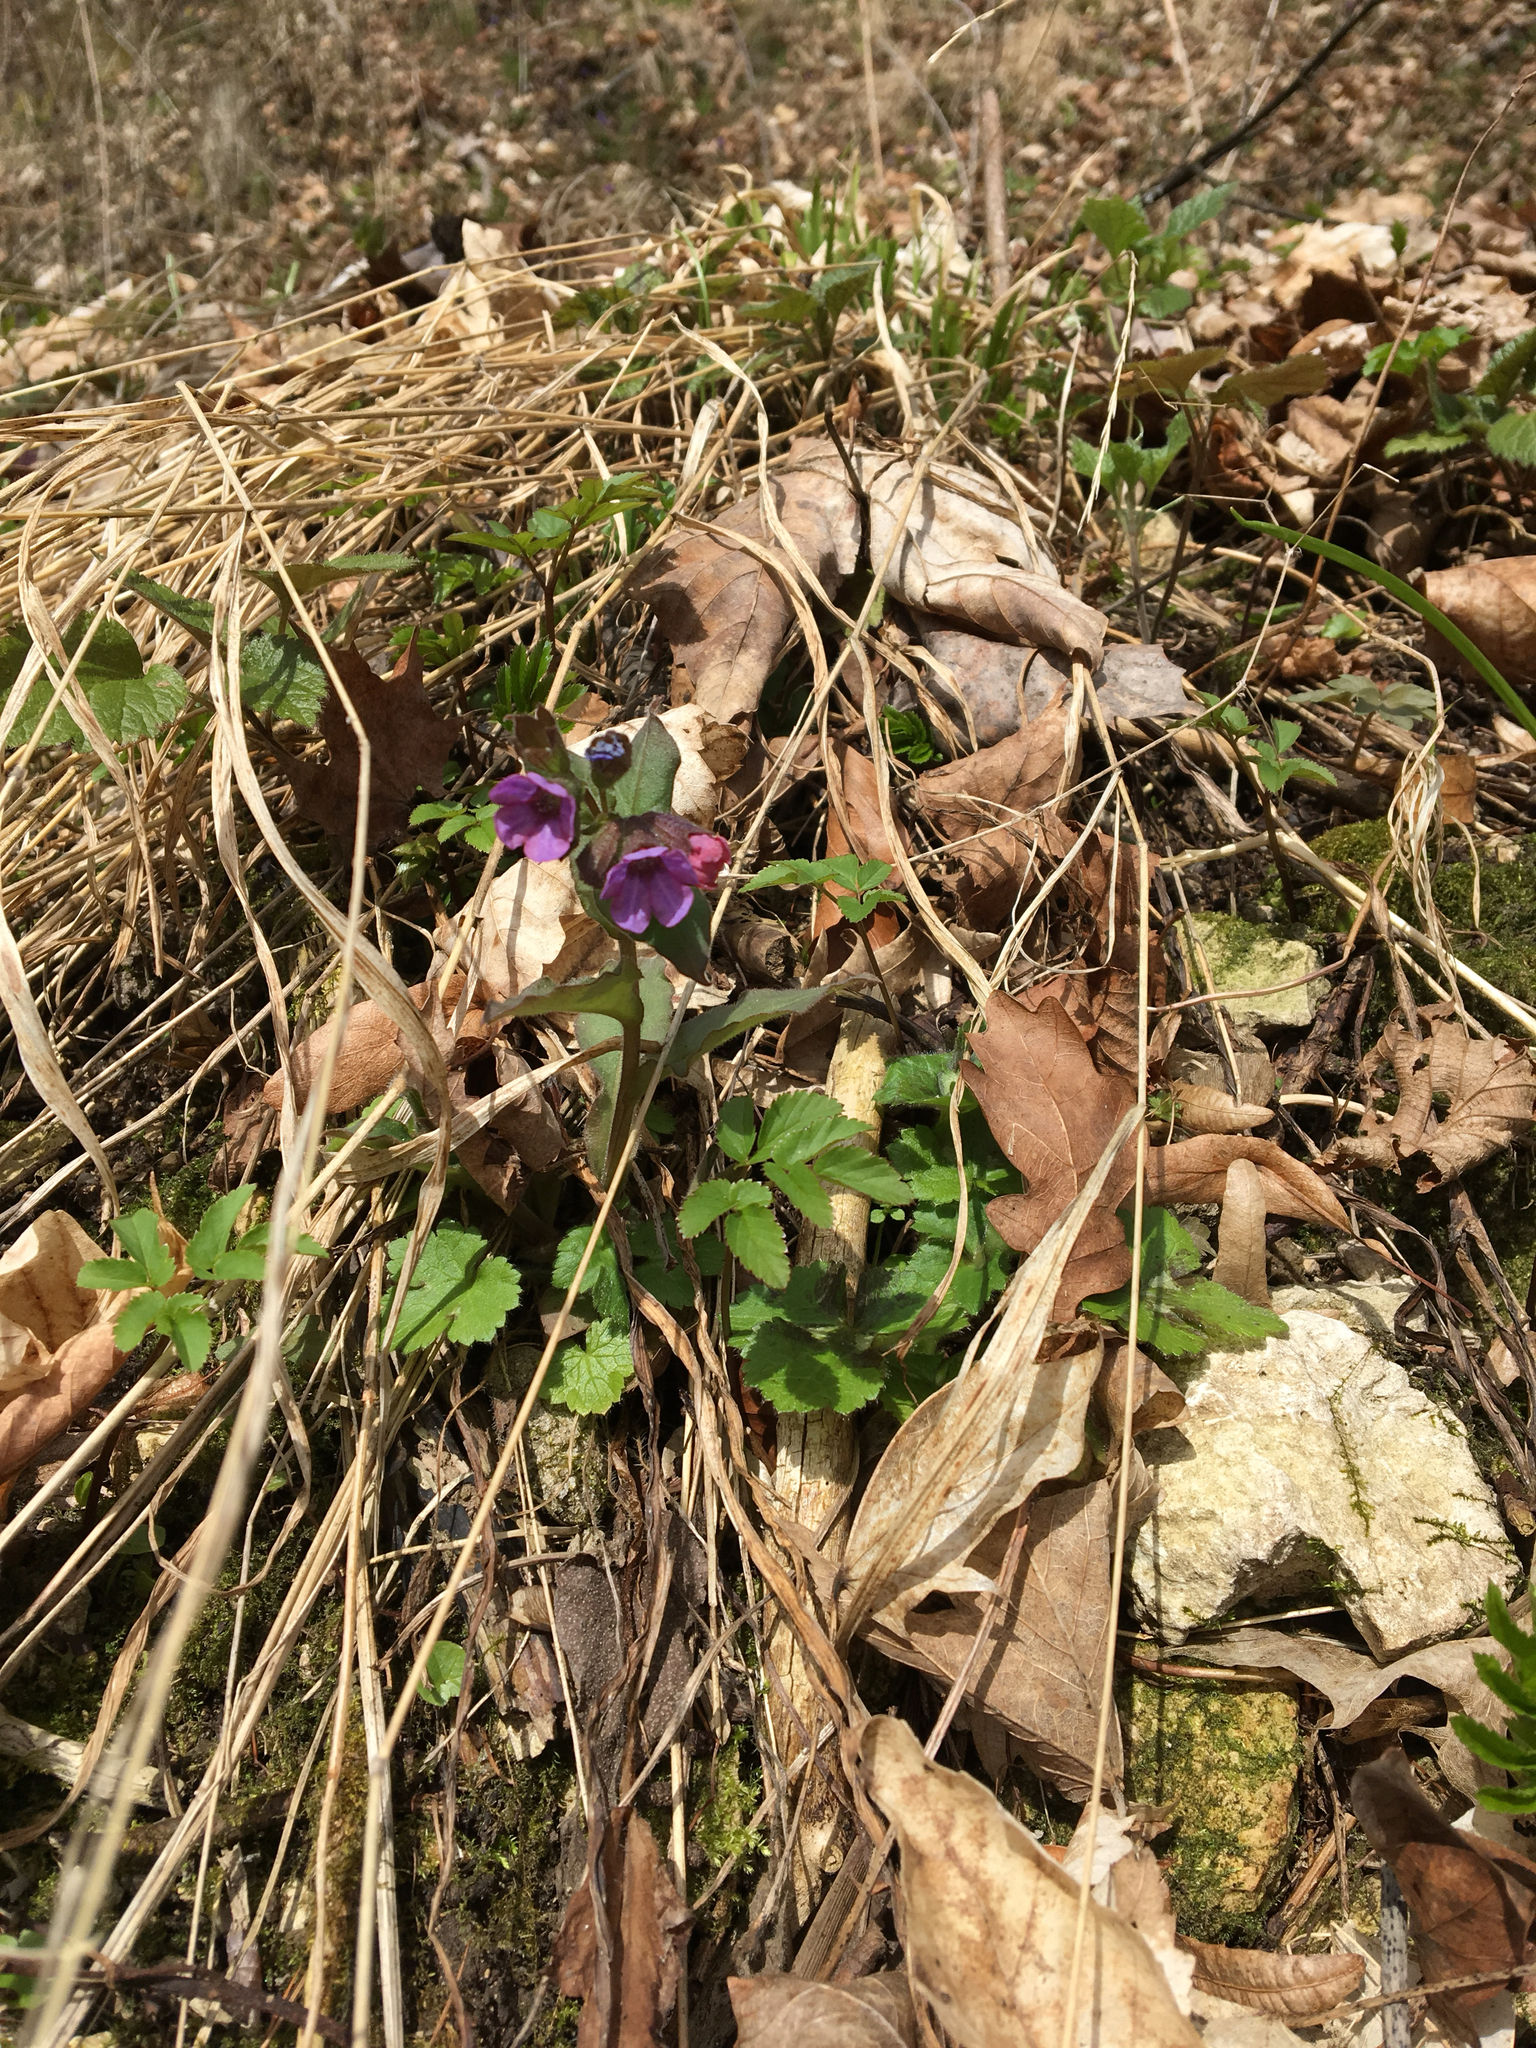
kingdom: Plantae
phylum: Tracheophyta
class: Magnoliopsida
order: Boraginales
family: Boraginaceae
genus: Pulmonaria
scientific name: Pulmonaria obscura
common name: Suffolk lungwort
